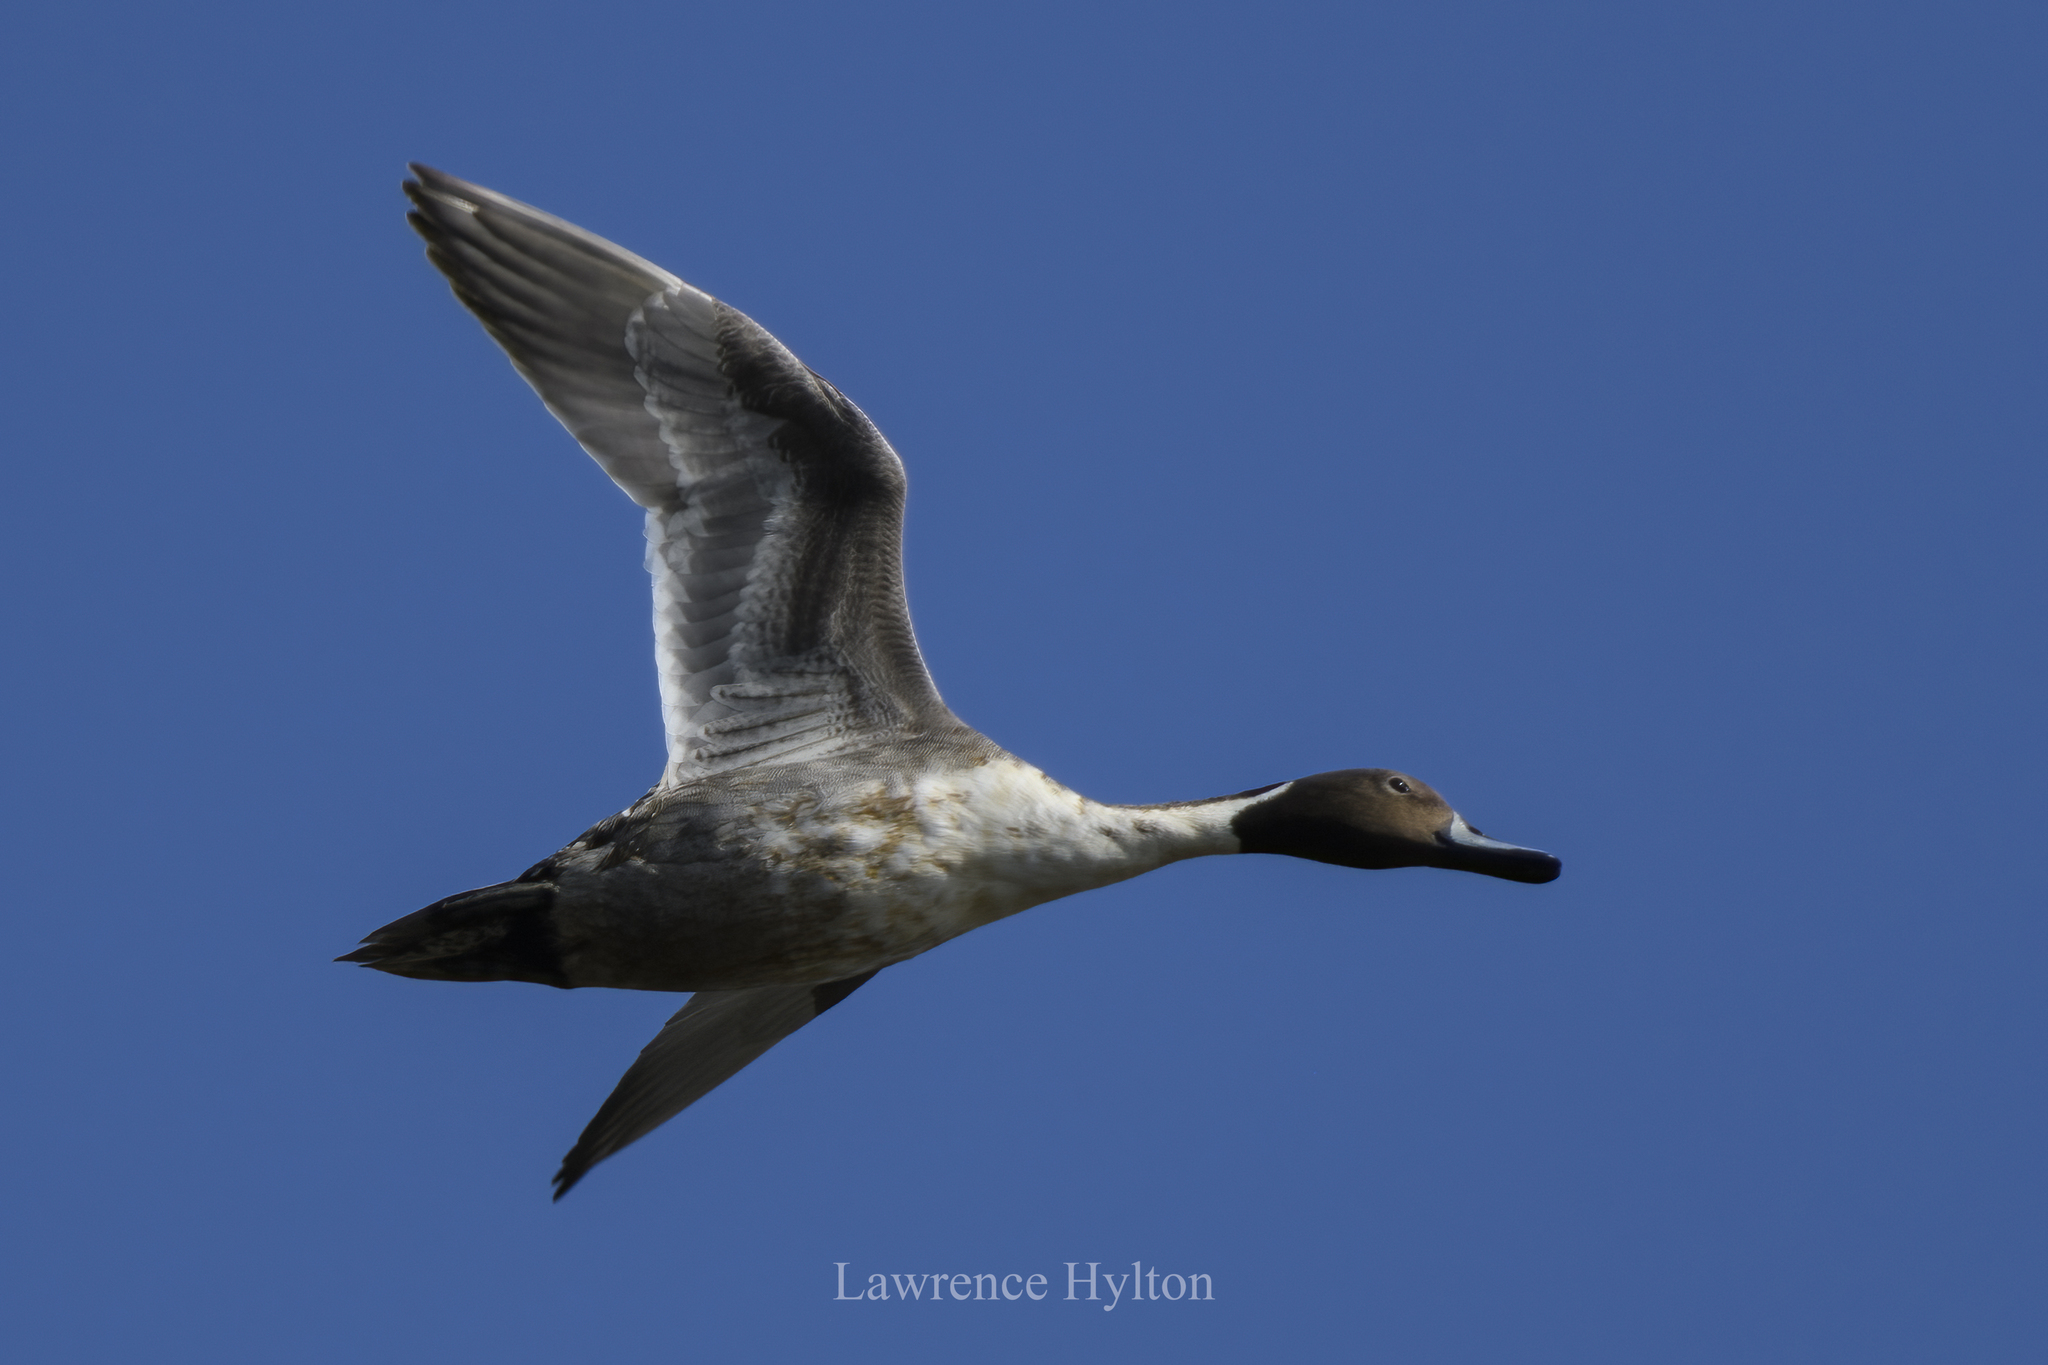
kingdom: Animalia
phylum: Chordata
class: Aves
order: Anseriformes
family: Anatidae
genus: Anas
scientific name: Anas acuta
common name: Northern pintail
